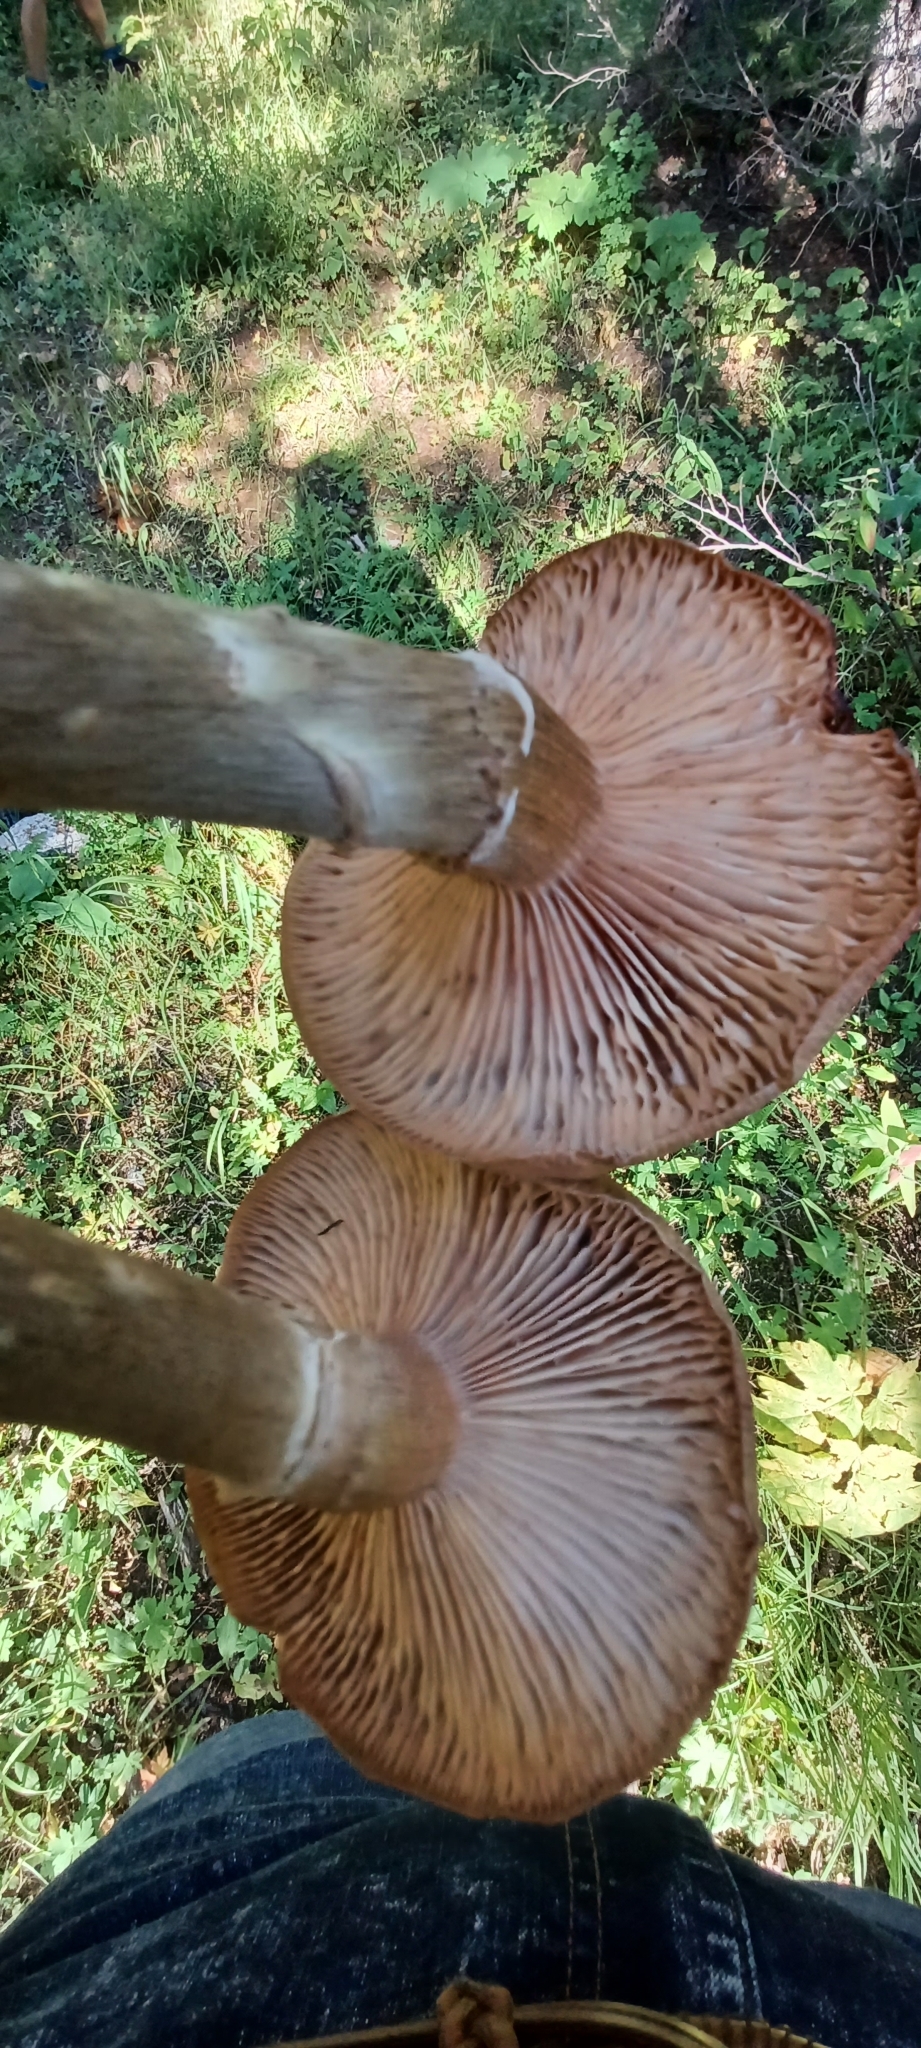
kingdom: Fungi
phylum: Basidiomycota
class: Agaricomycetes
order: Agaricales
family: Physalacriaceae
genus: Armillaria
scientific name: Armillaria ostoyae
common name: Dark honey fungus
